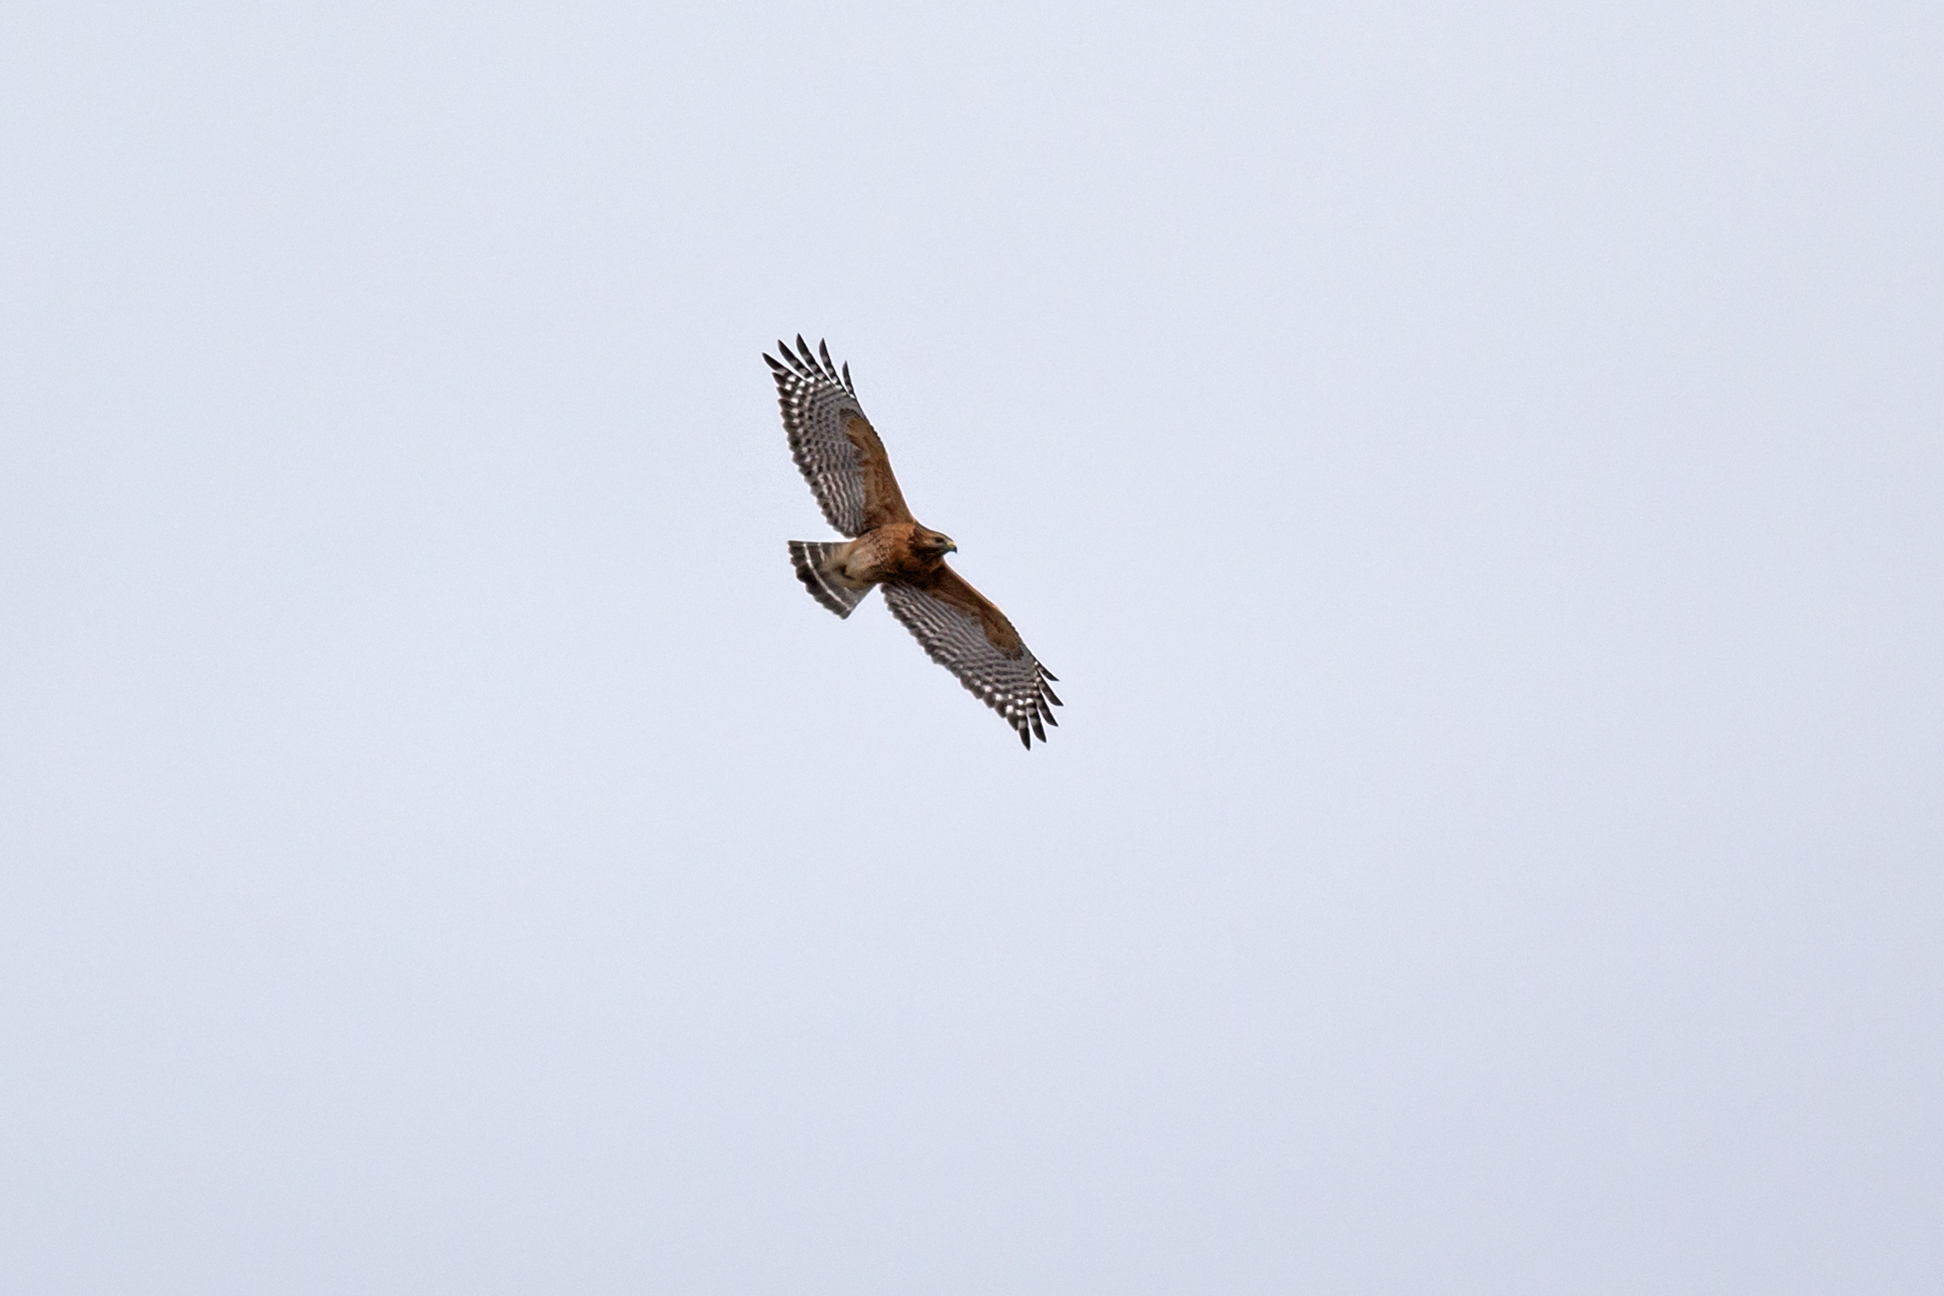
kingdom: Animalia
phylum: Chordata
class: Aves
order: Accipitriformes
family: Accipitridae
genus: Buteo
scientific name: Buteo lineatus
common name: Red-shouldered hawk
